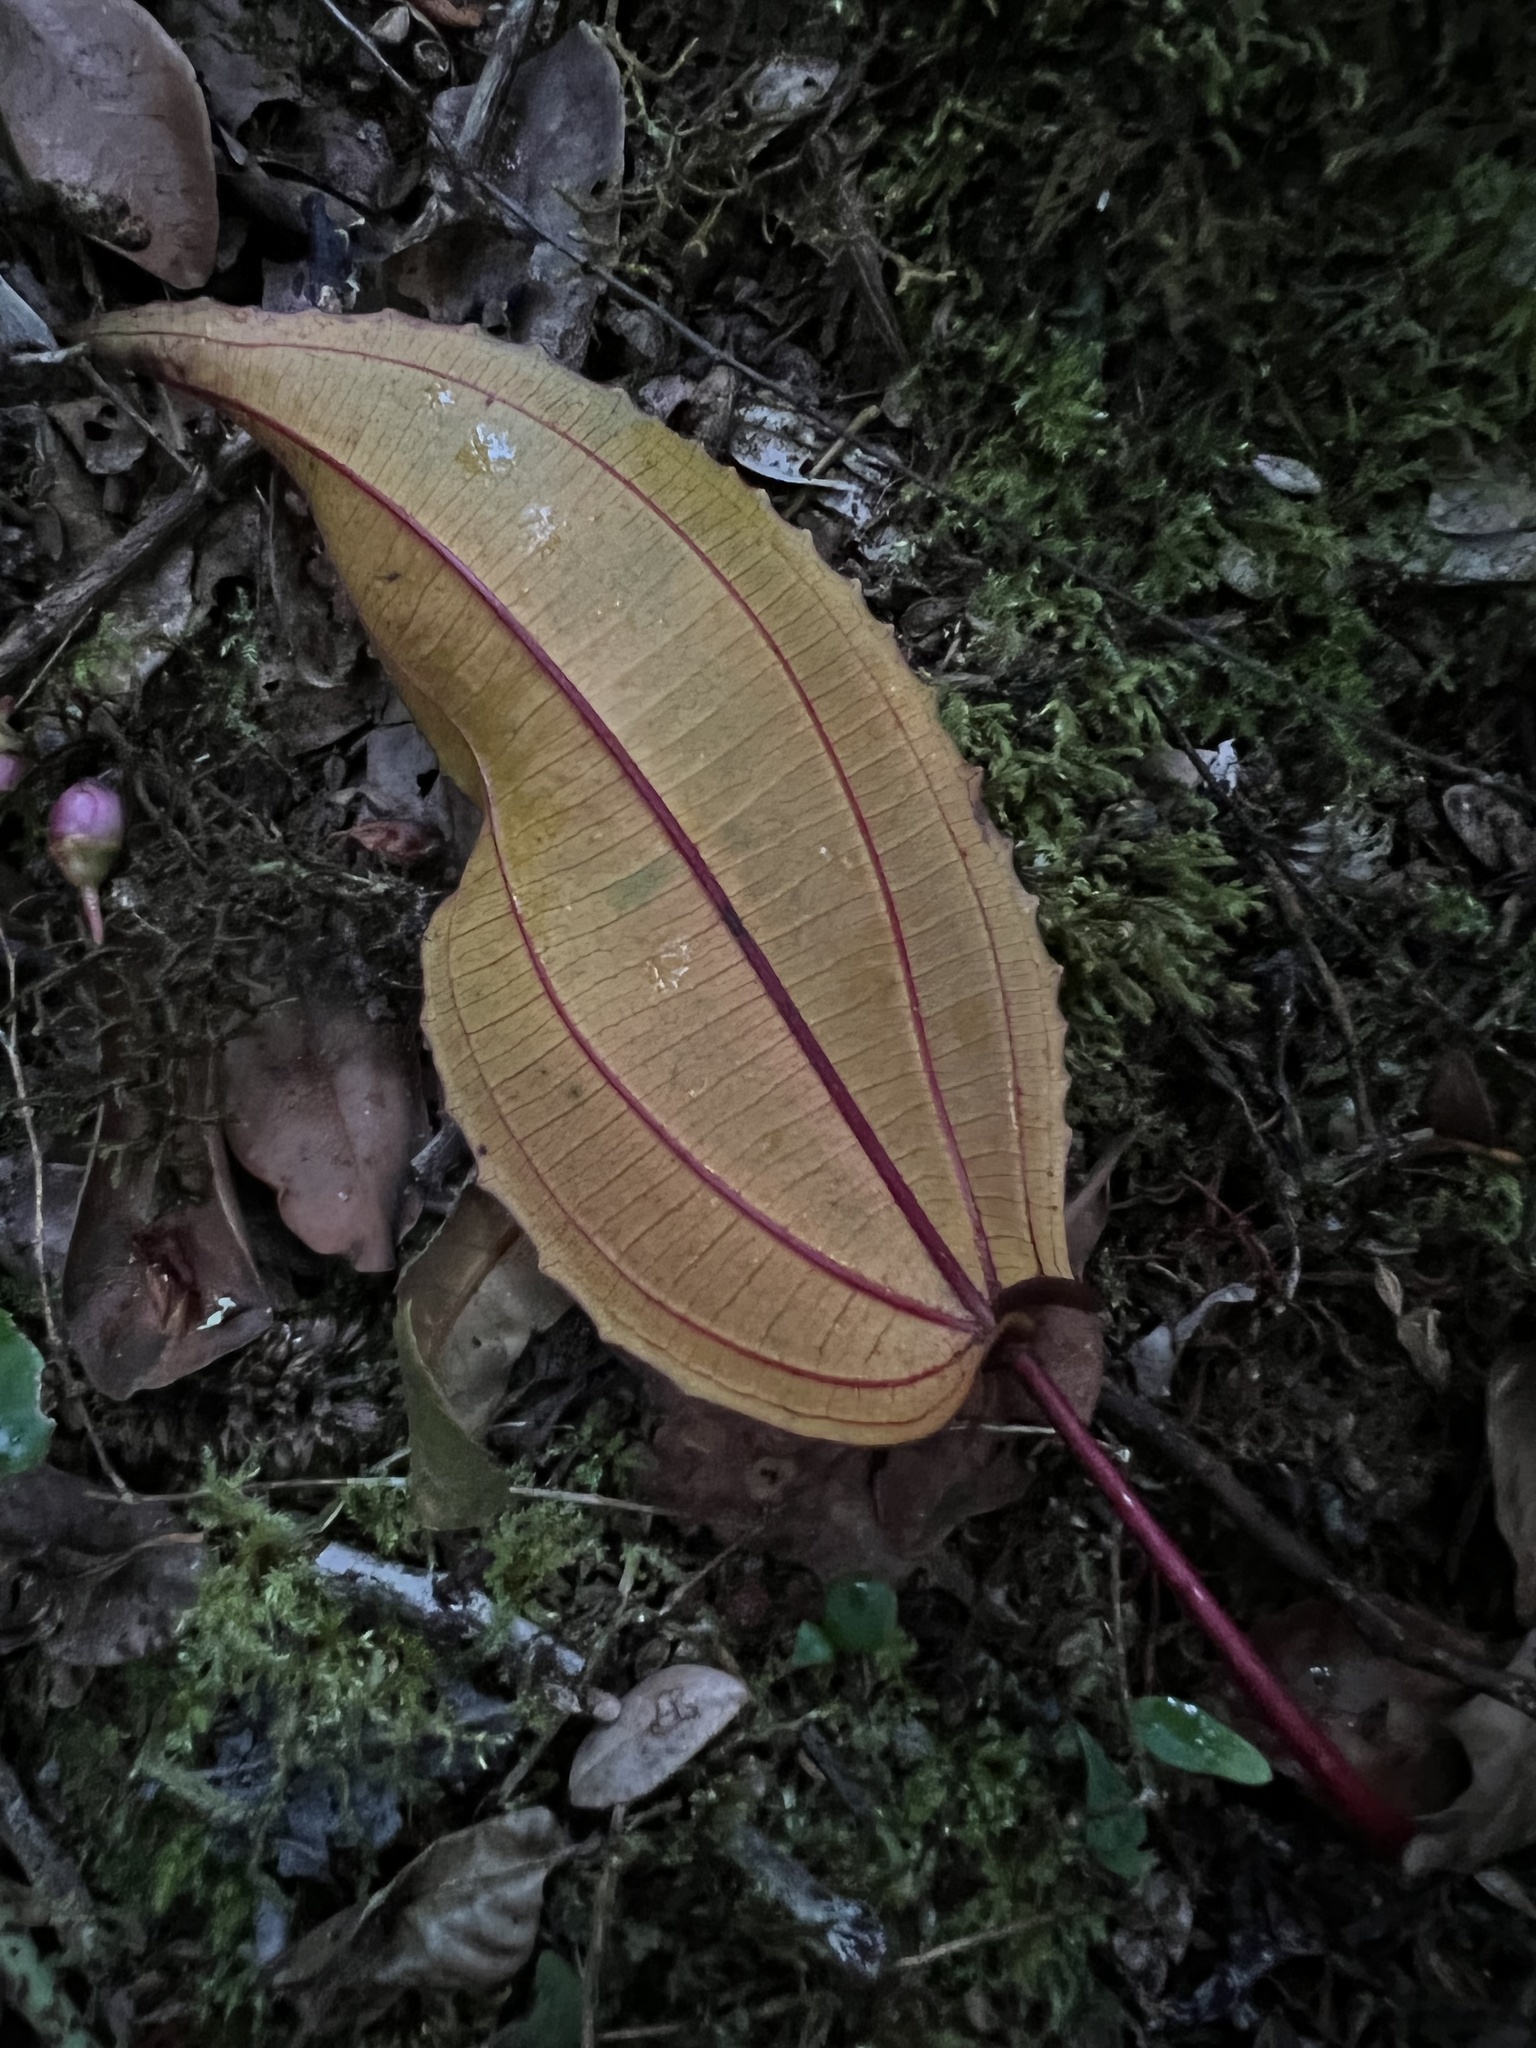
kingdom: Plantae
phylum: Tracheophyta
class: Magnoliopsida
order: Myrtales
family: Melastomataceae
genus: Axinaea
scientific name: Axinaea scutigera
